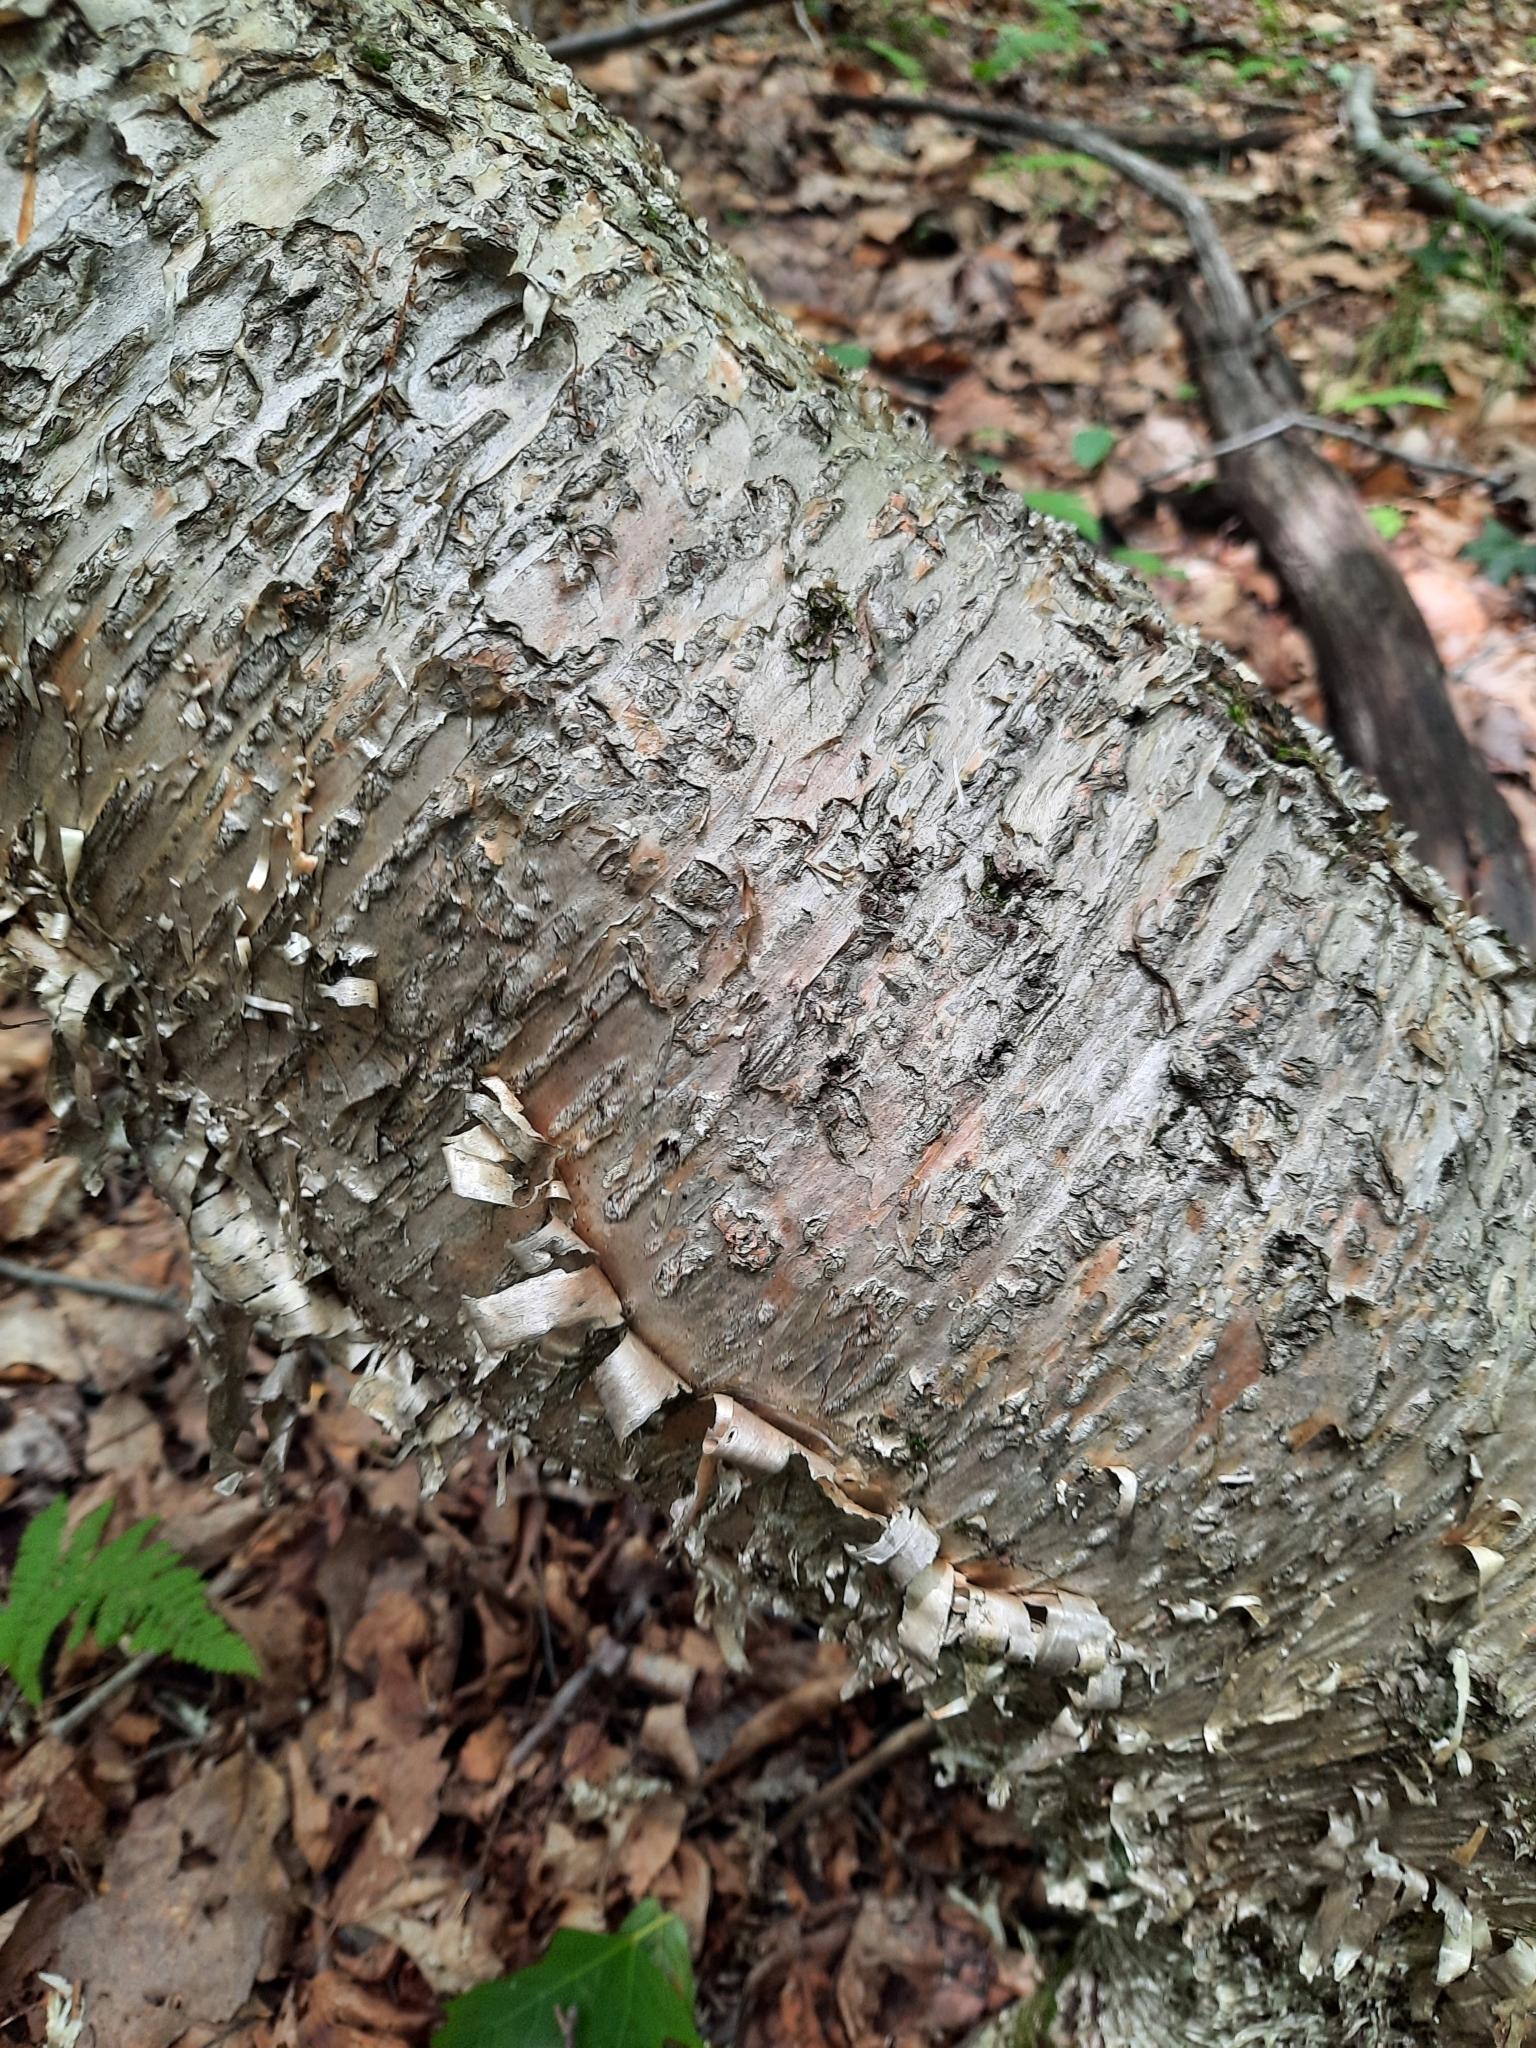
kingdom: Plantae
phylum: Tracheophyta
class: Magnoliopsida
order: Fagales
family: Betulaceae
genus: Betula
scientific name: Betula alleghaniensis
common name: Yellow birch
